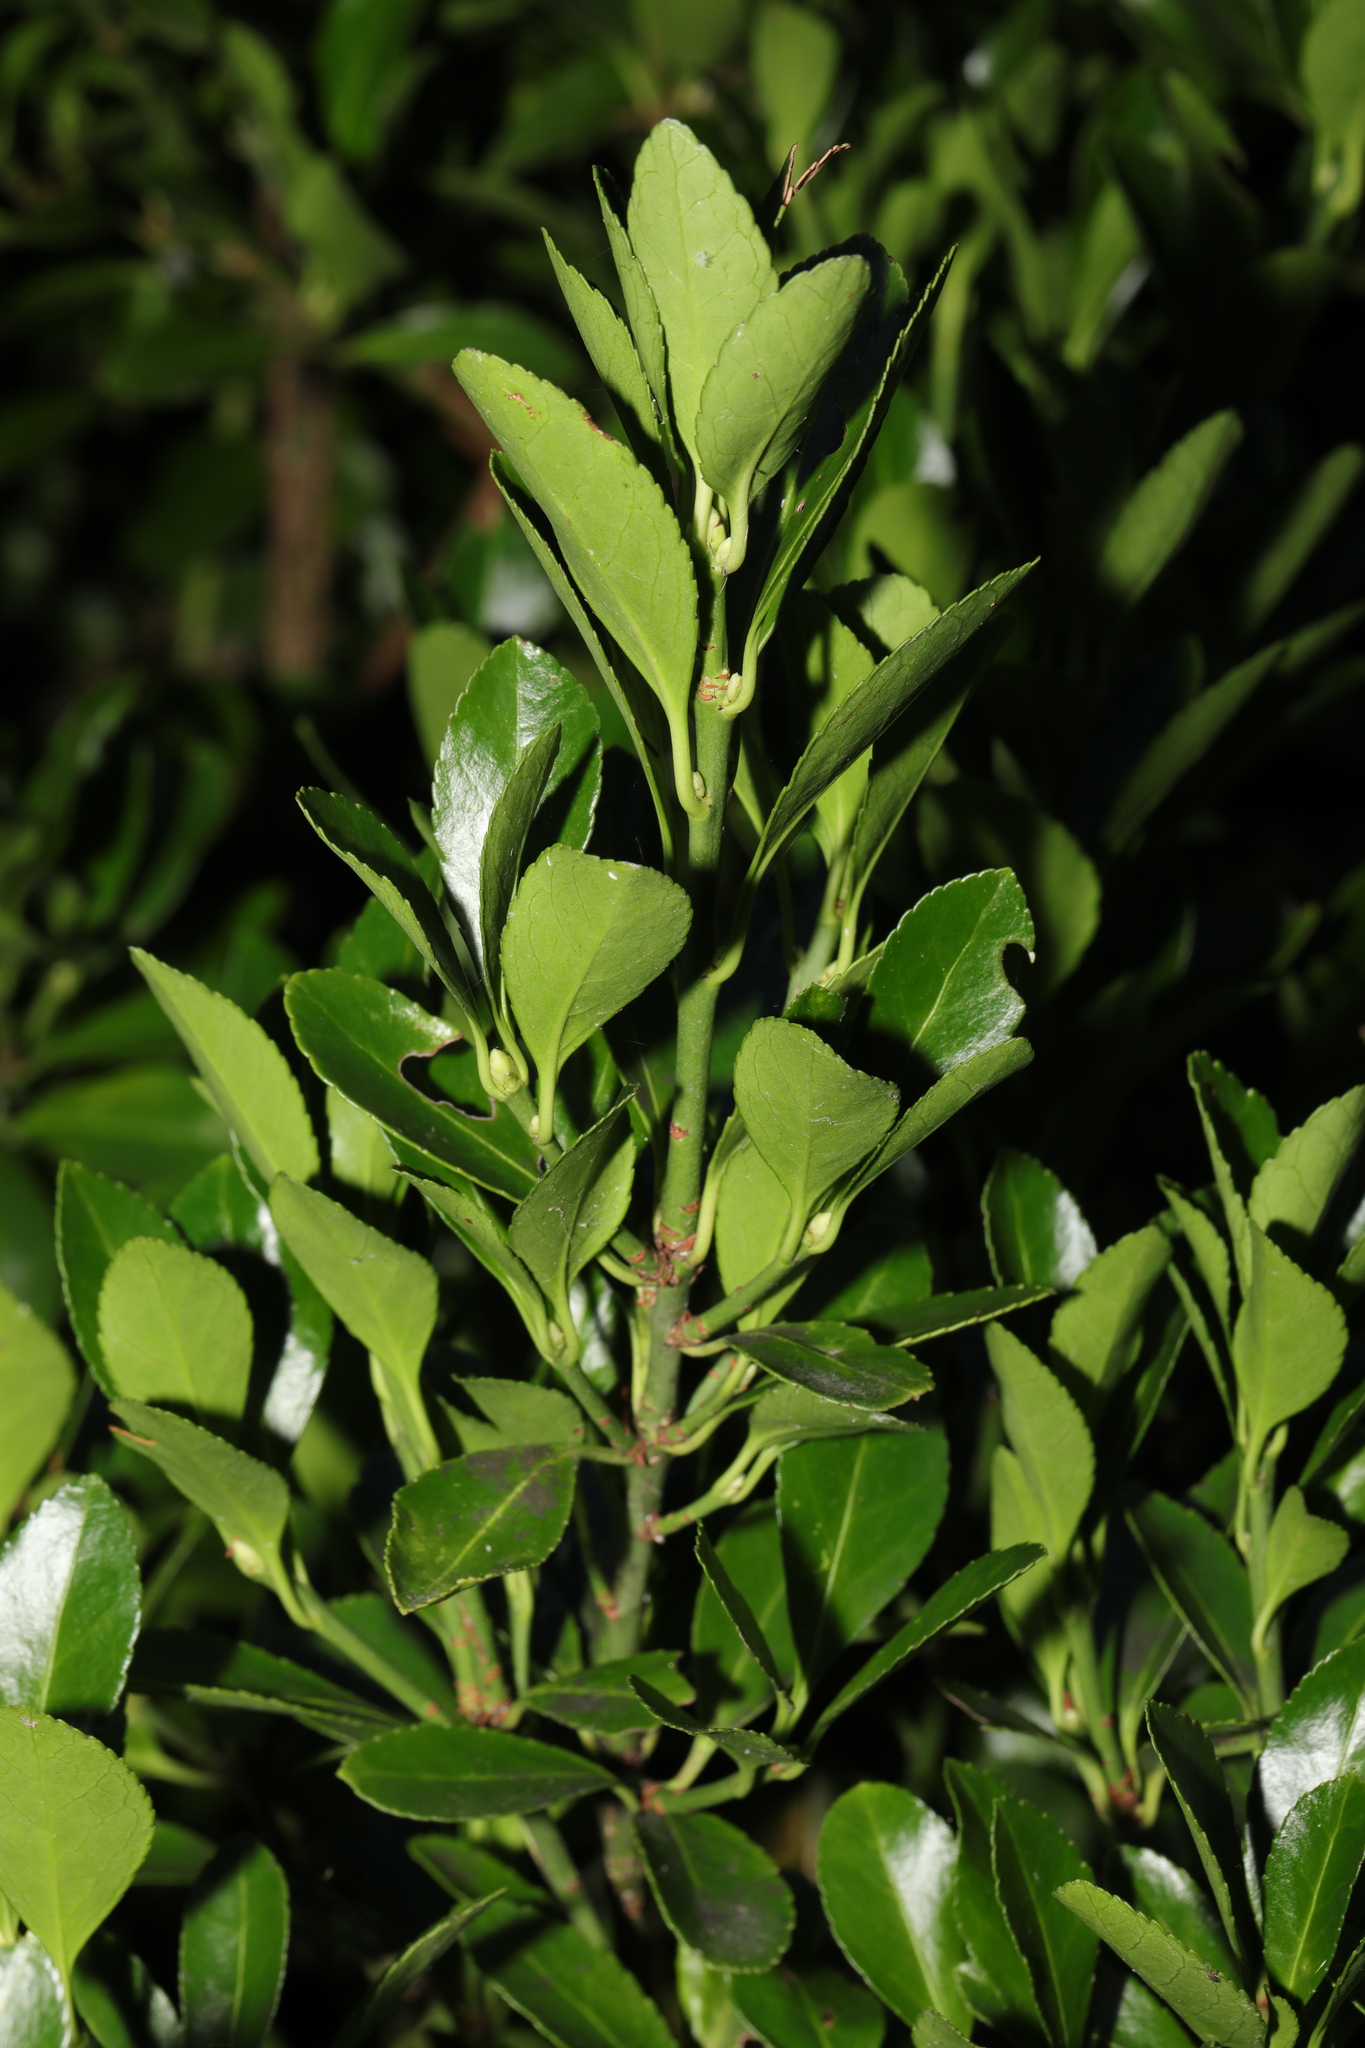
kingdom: Plantae
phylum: Tracheophyta
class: Magnoliopsida
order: Celastrales
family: Celastraceae
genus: Euonymus
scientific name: Euonymus japonicus
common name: Japanese spindletree
